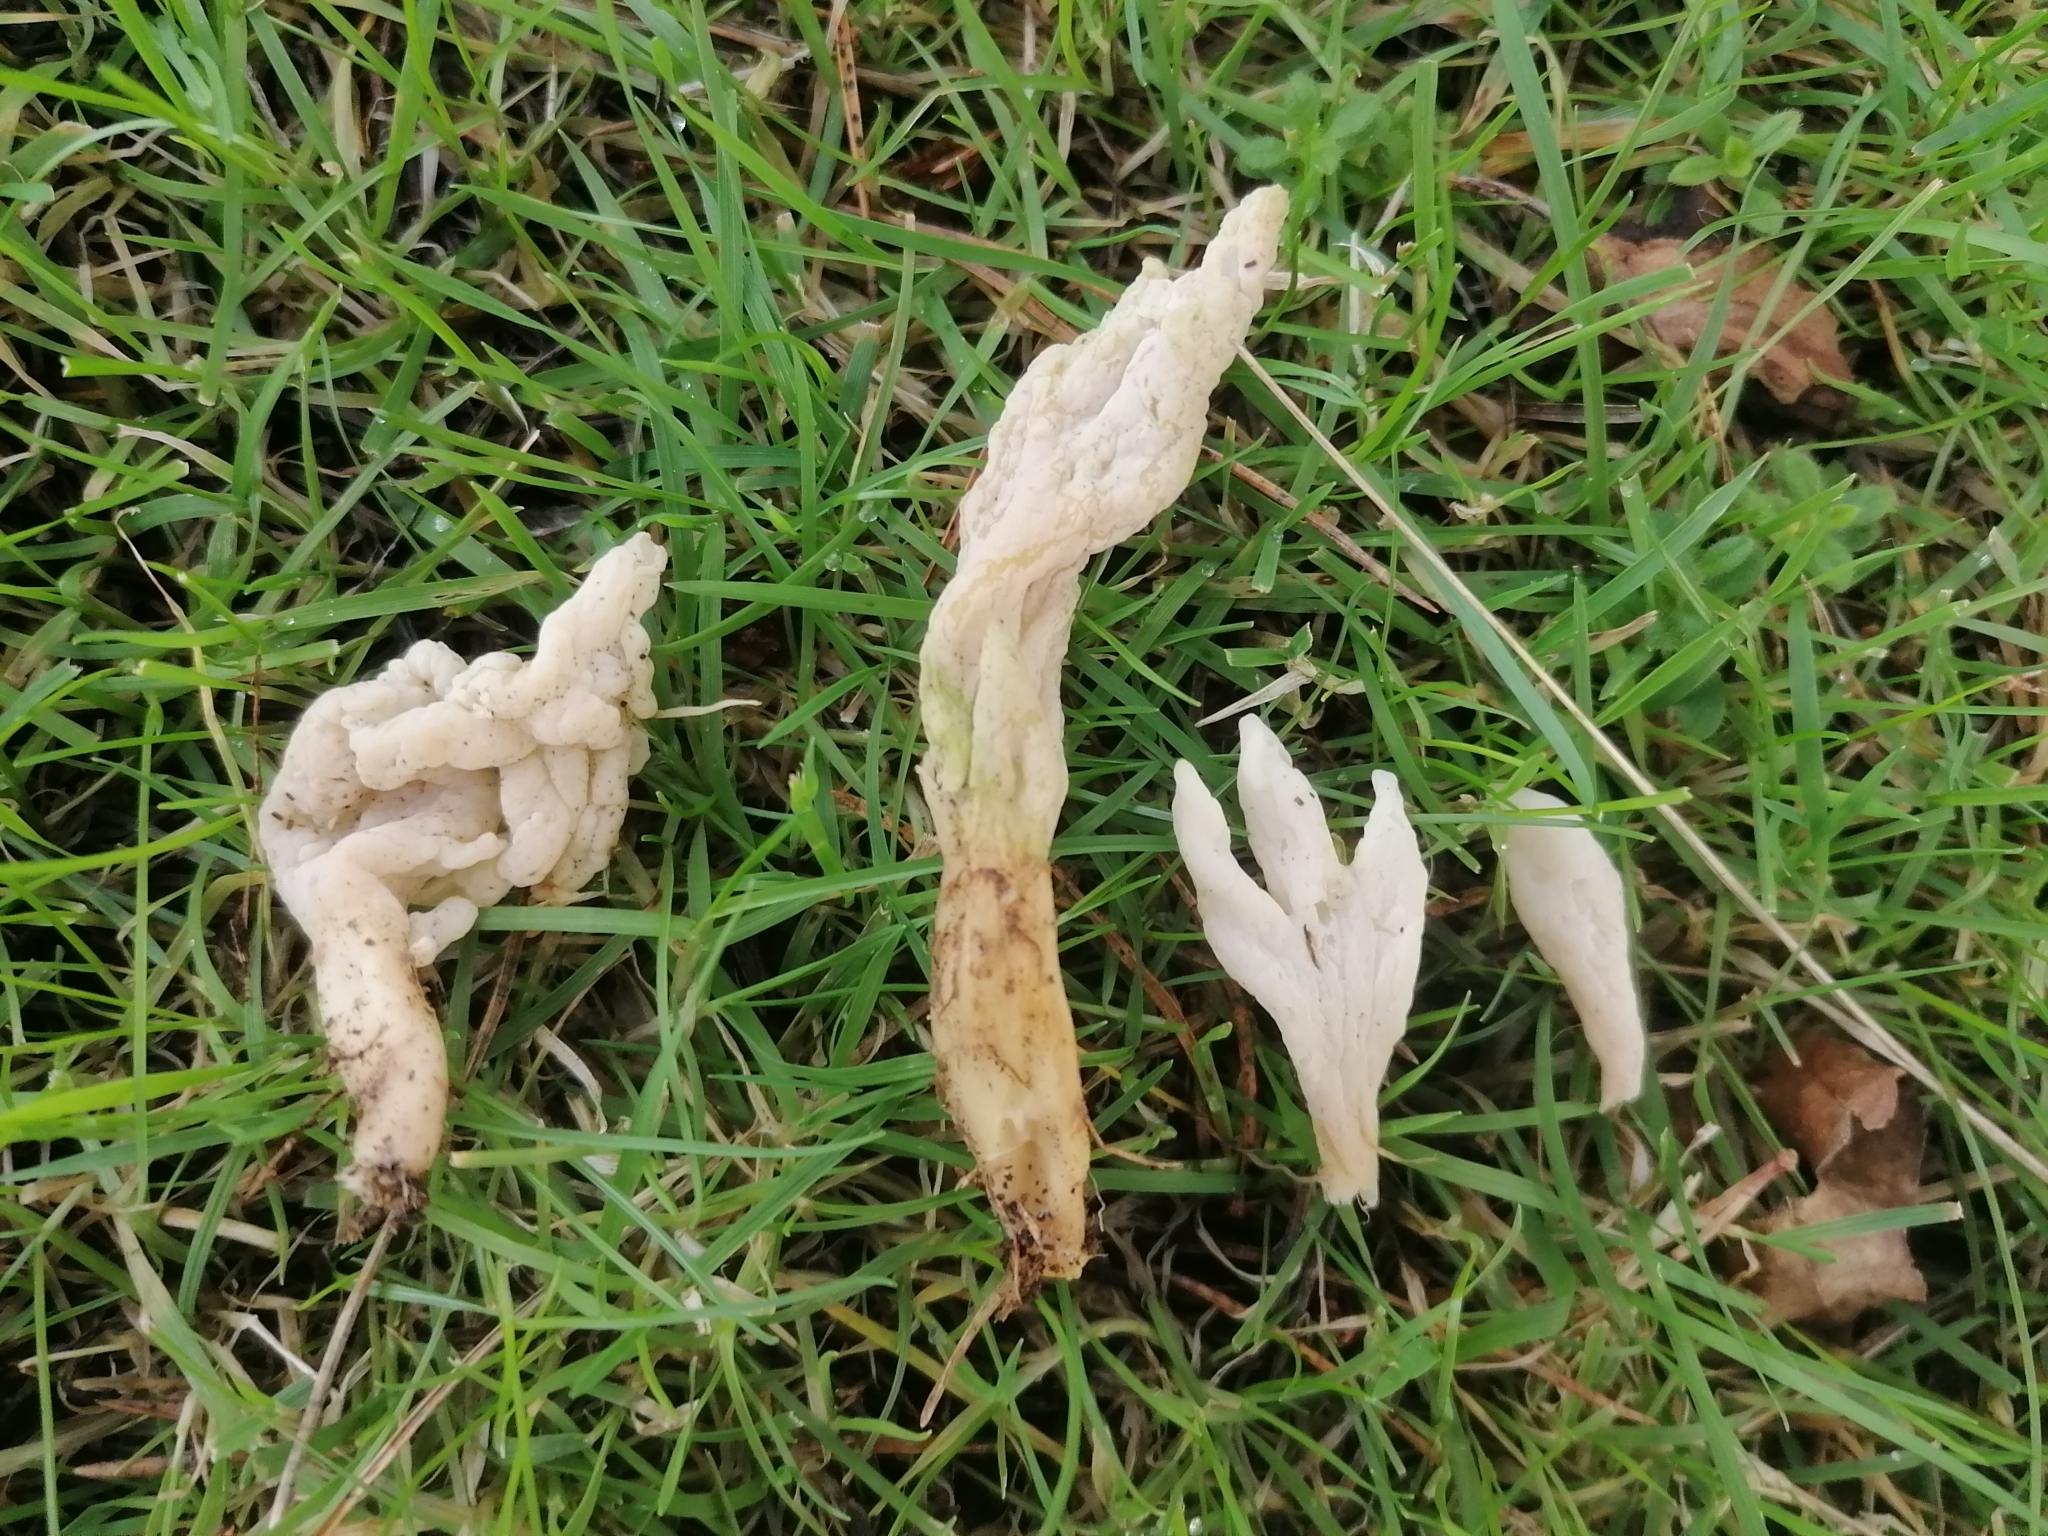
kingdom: Fungi
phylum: Basidiomycota
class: Agaricomycetes
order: Cantharellales
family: Hydnaceae
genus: Clavulina
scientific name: Clavulina rugosa
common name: Wrinkled club
